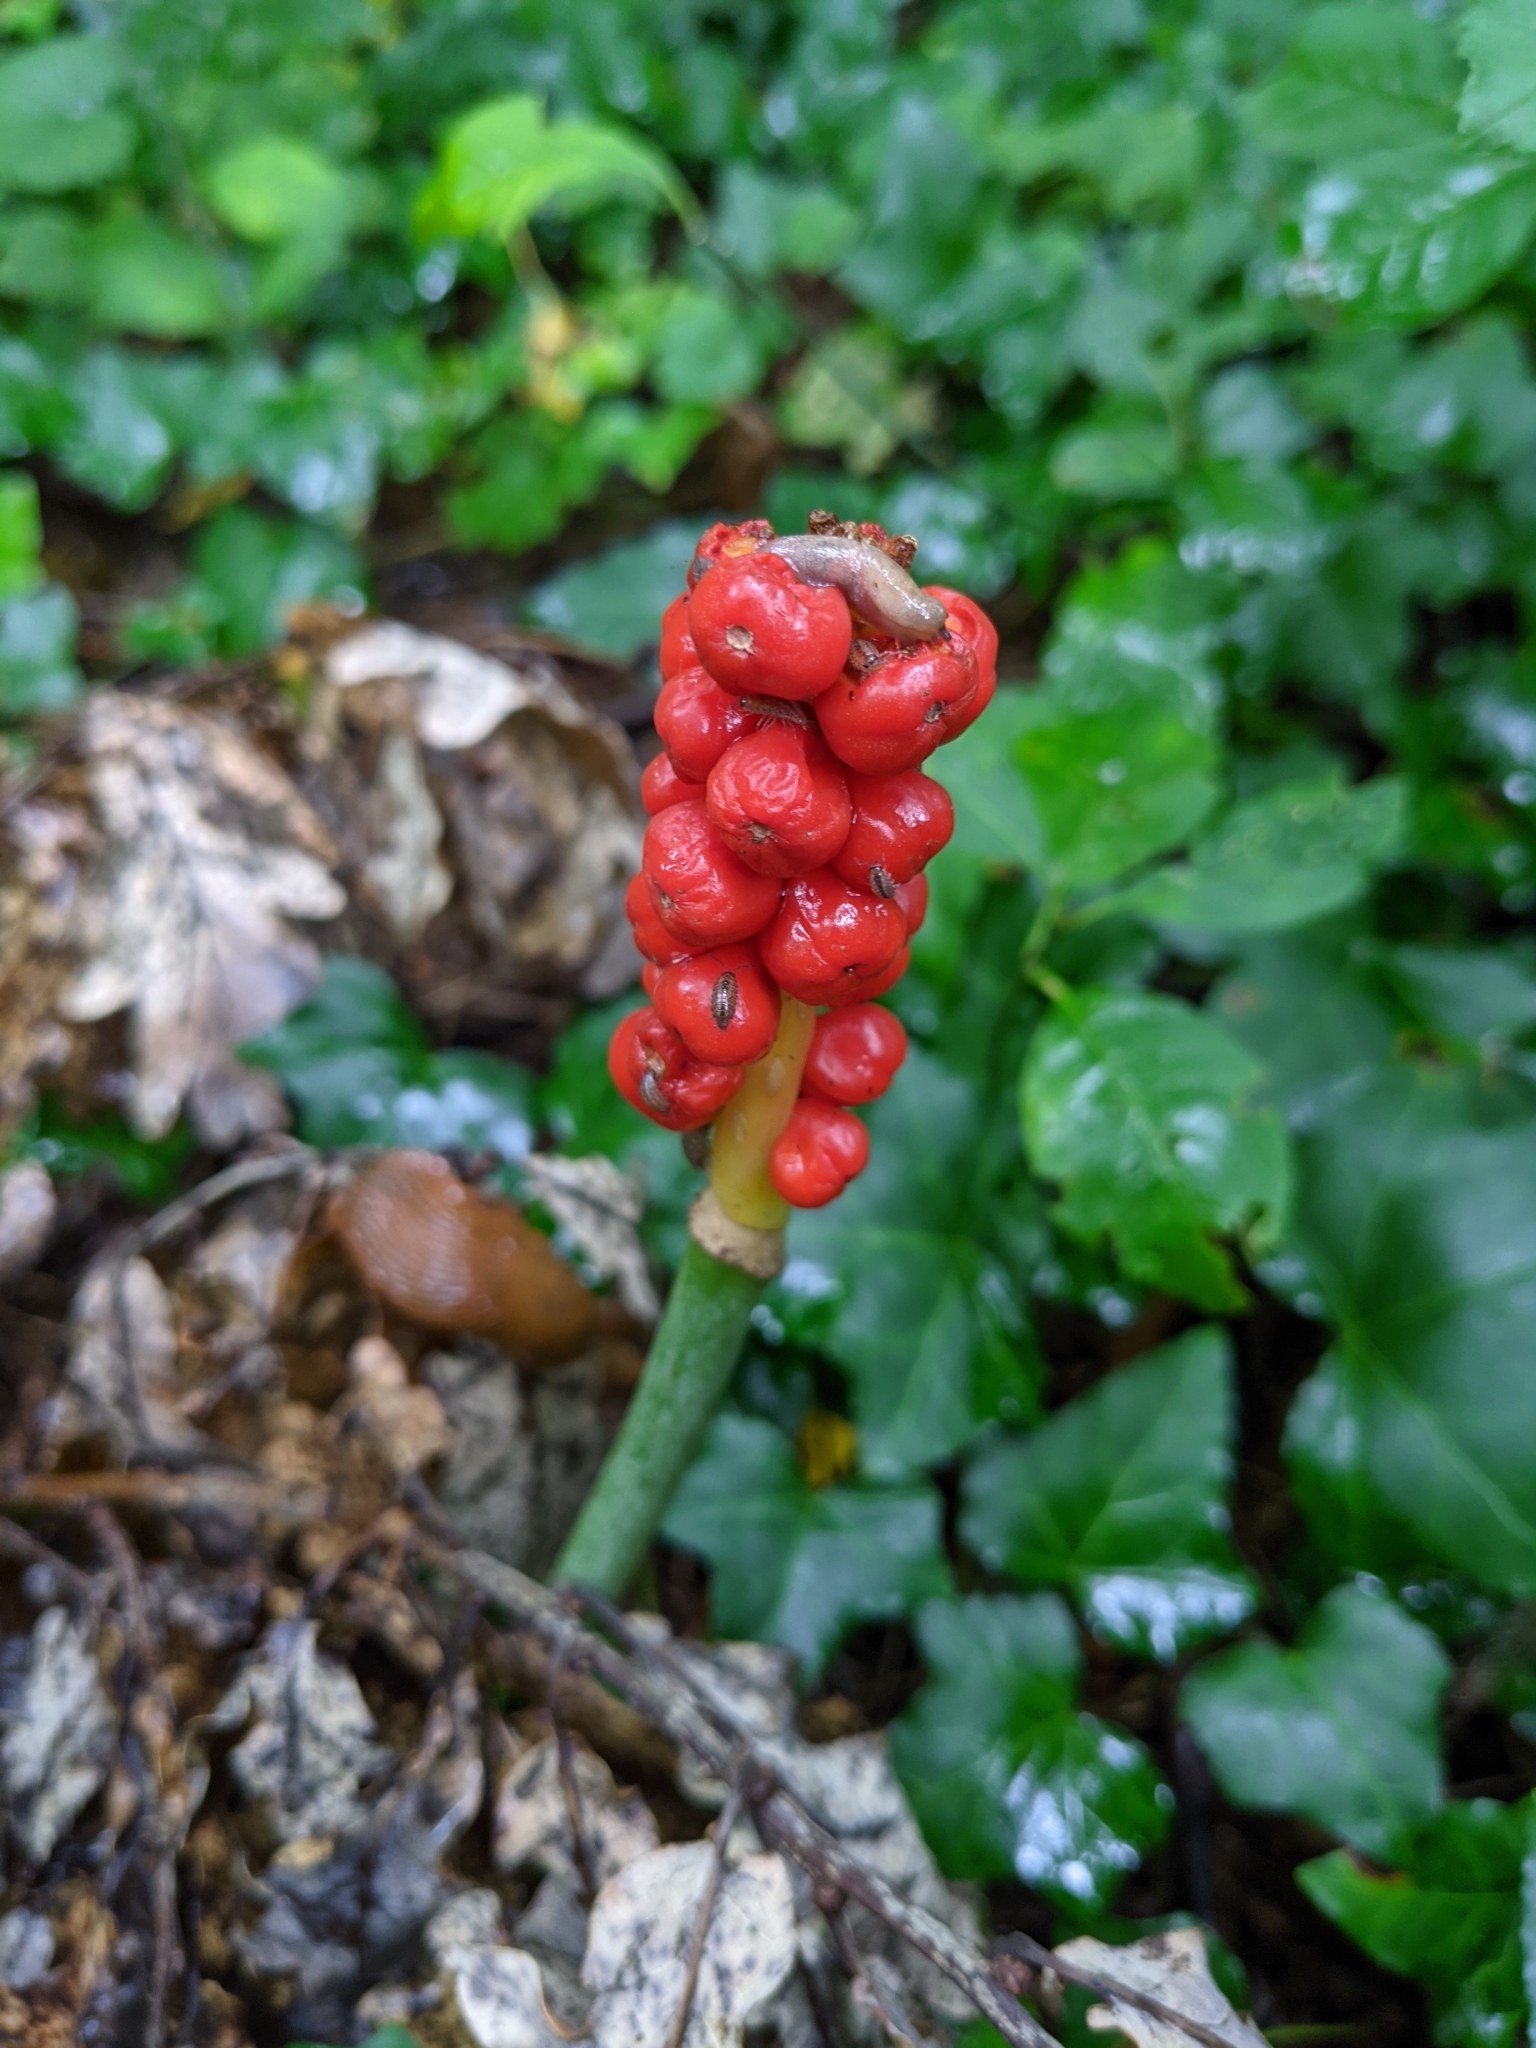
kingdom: Plantae
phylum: Tracheophyta
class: Liliopsida
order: Alismatales
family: Araceae
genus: Arum
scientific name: Arum maculatum
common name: Lords-and-ladies
